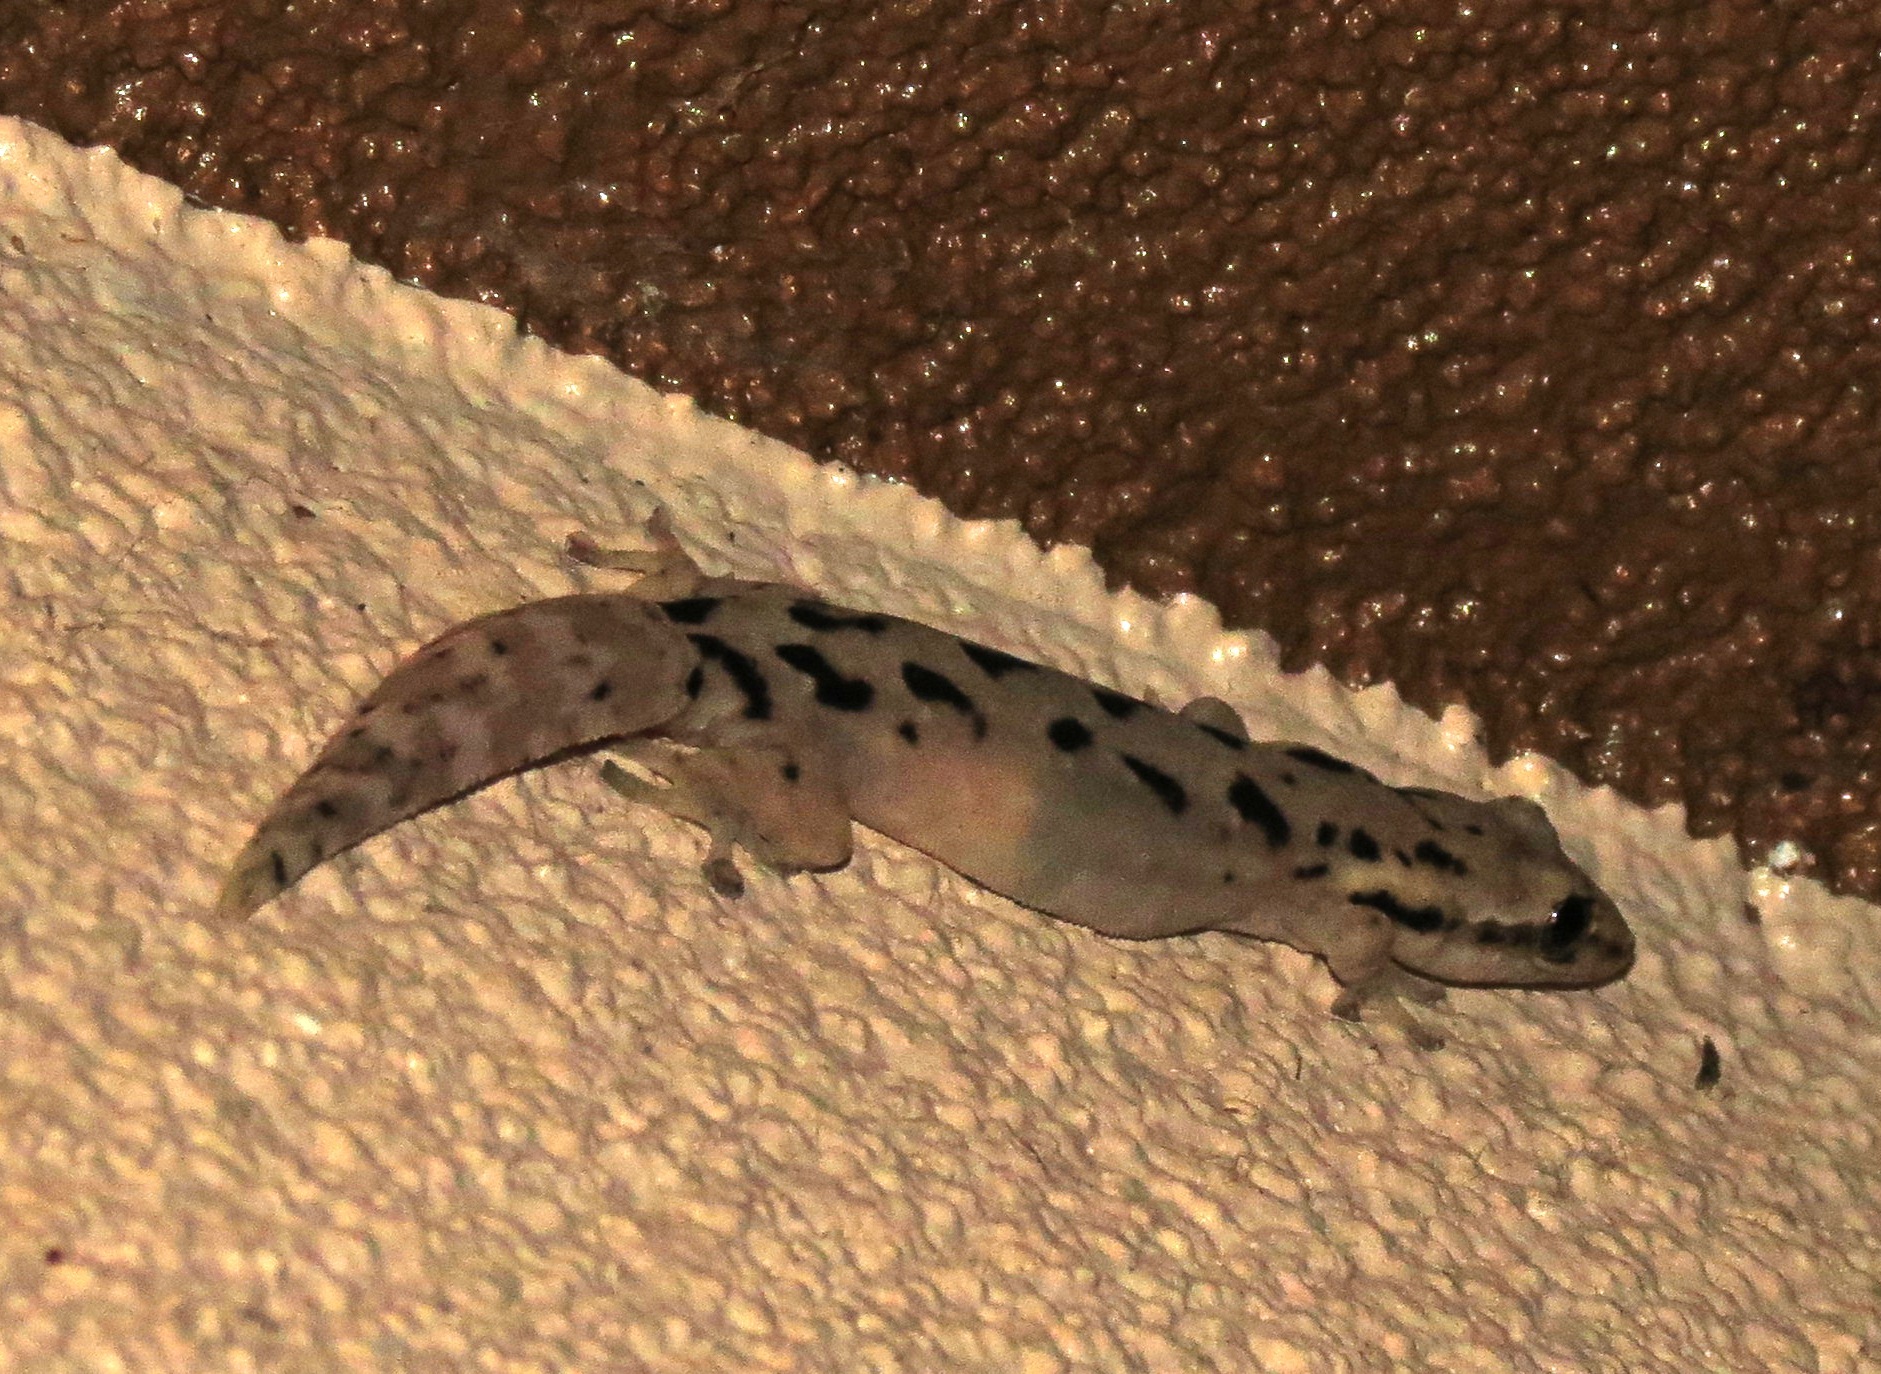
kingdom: Animalia
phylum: Chordata
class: Squamata
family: Gekkonidae
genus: Lepidodactylus
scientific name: Lepidodactylus lugubris
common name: Mourning gecko
